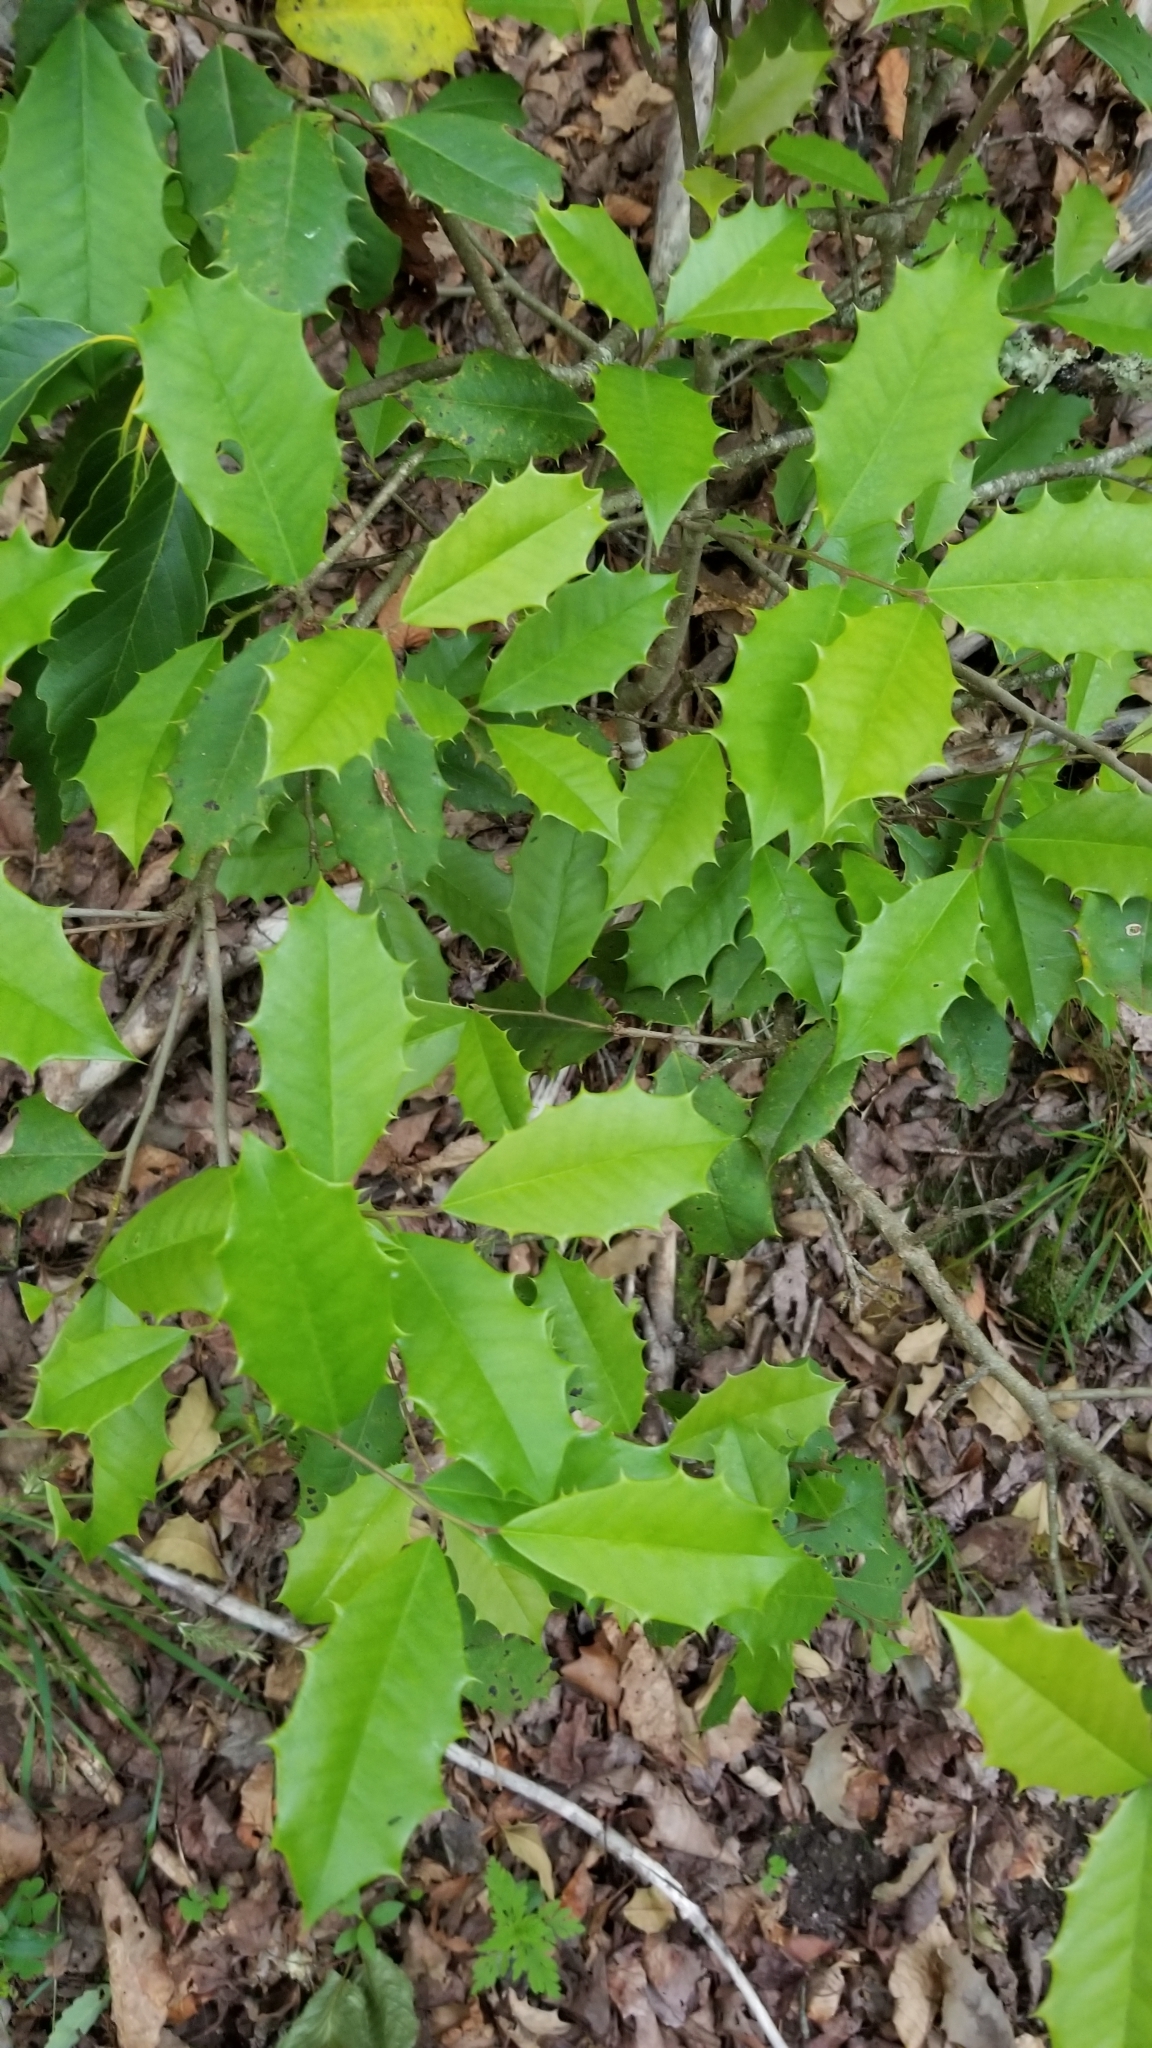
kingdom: Plantae
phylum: Tracheophyta
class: Magnoliopsida
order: Aquifoliales
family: Aquifoliaceae
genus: Ilex
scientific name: Ilex opaca
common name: American holly
